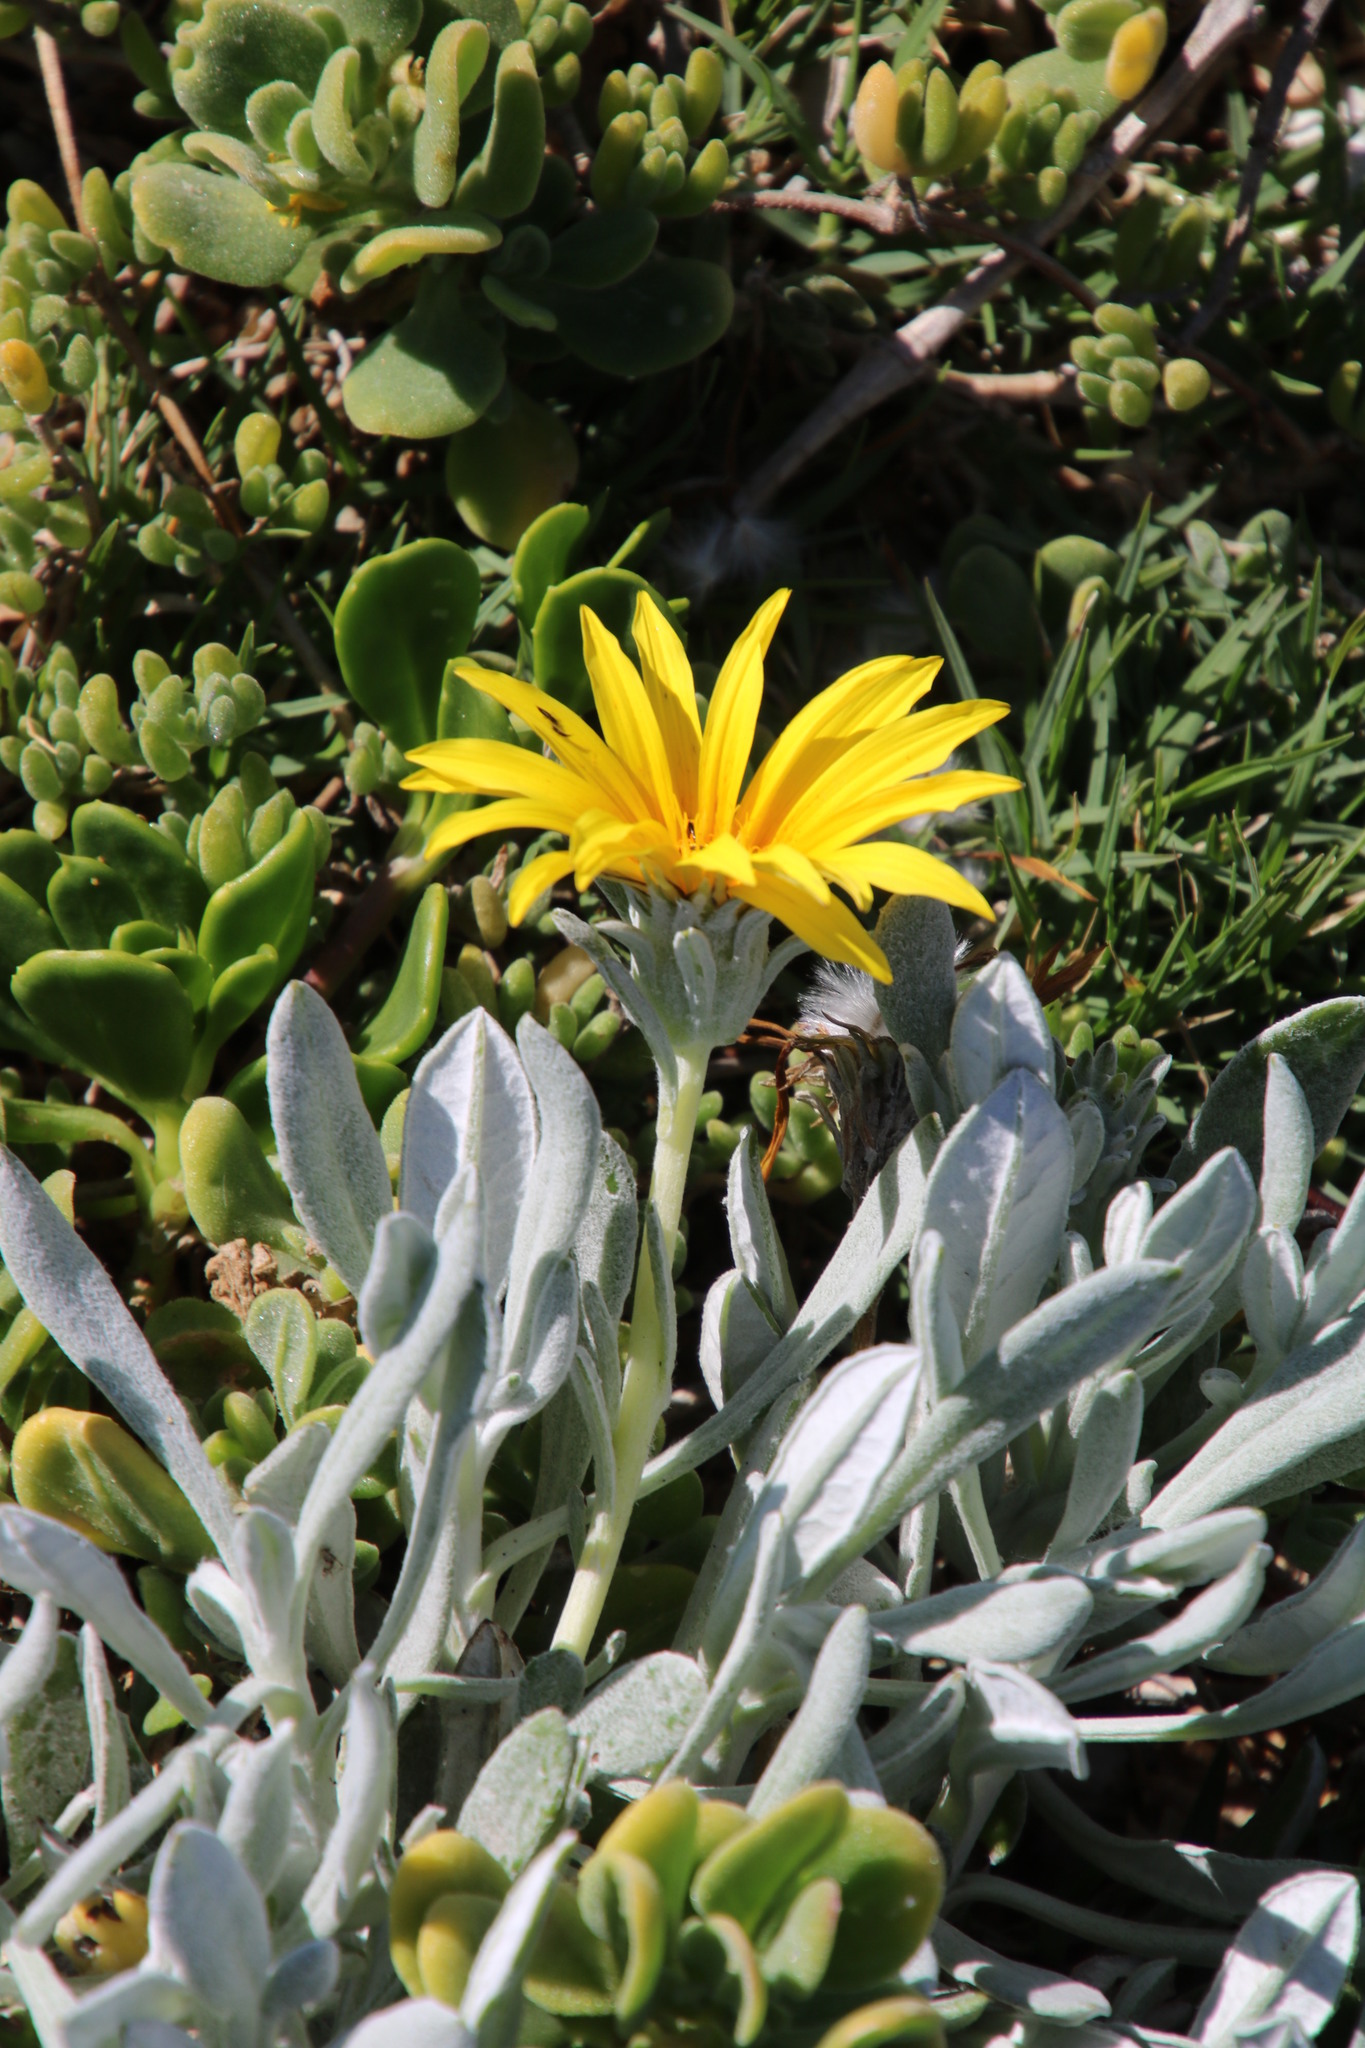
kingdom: Plantae
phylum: Tracheophyta
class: Magnoliopsida
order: Asterales
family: Asteraceae
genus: Gazania
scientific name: Gazania rigens
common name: Treasureflower
